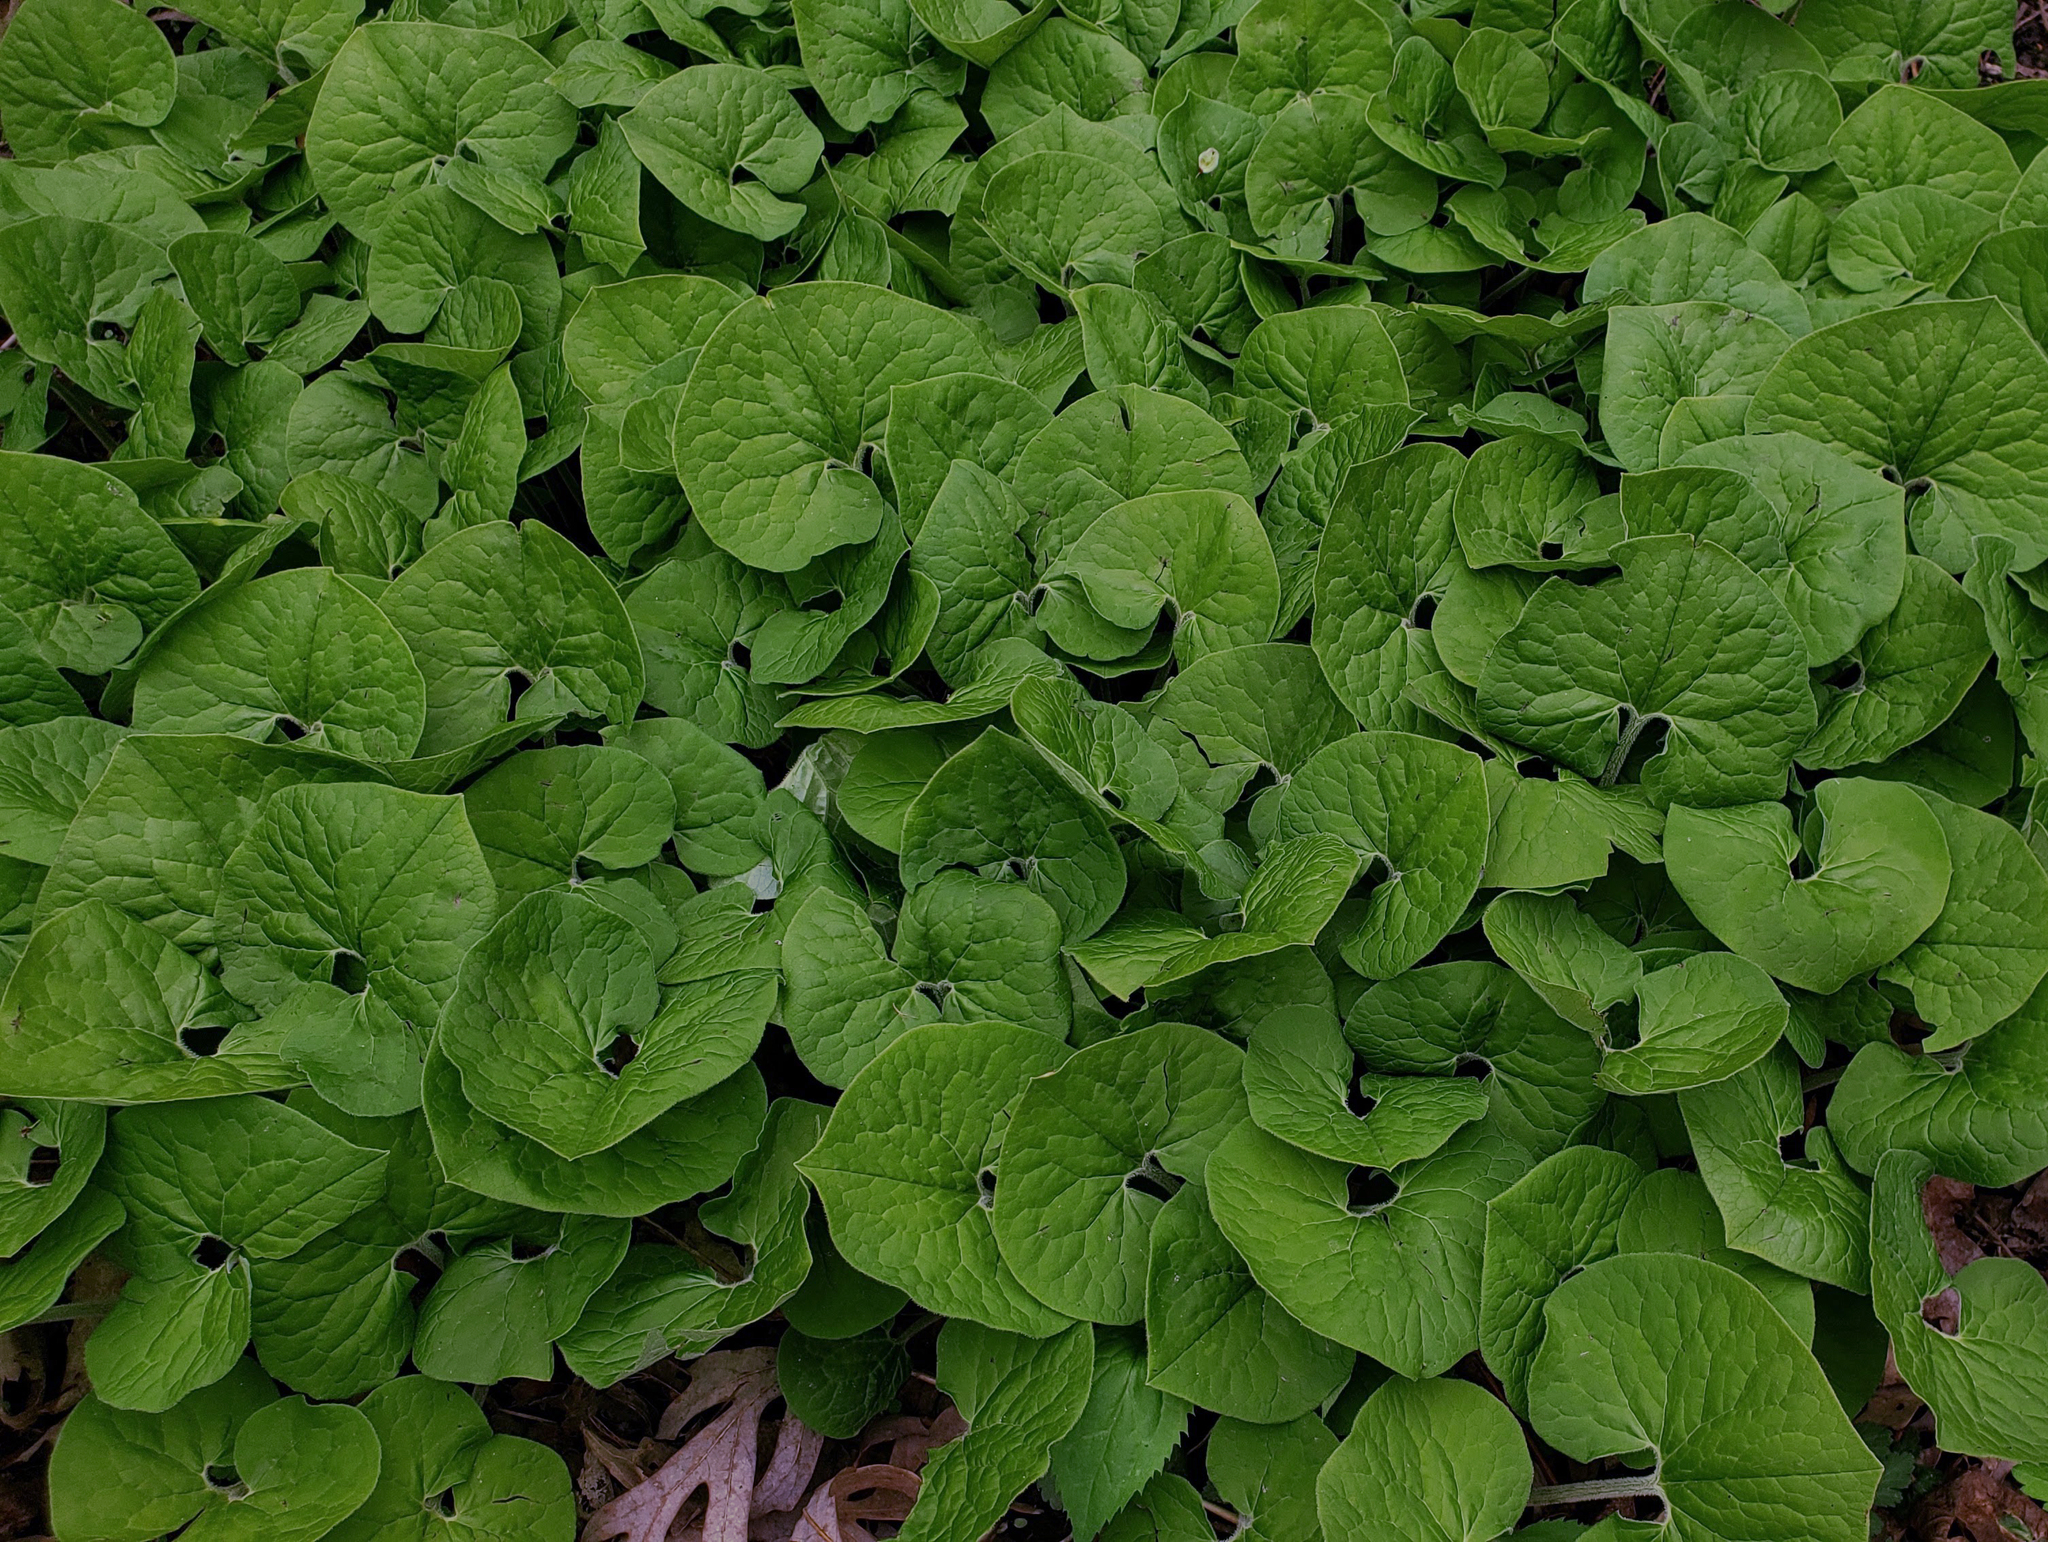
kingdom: Plantae
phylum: Tracheophyta
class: Magnoliopsida
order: Piperales
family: Aristolochiaceae
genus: Asarum
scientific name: Asarum canadense
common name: Wild ginger
